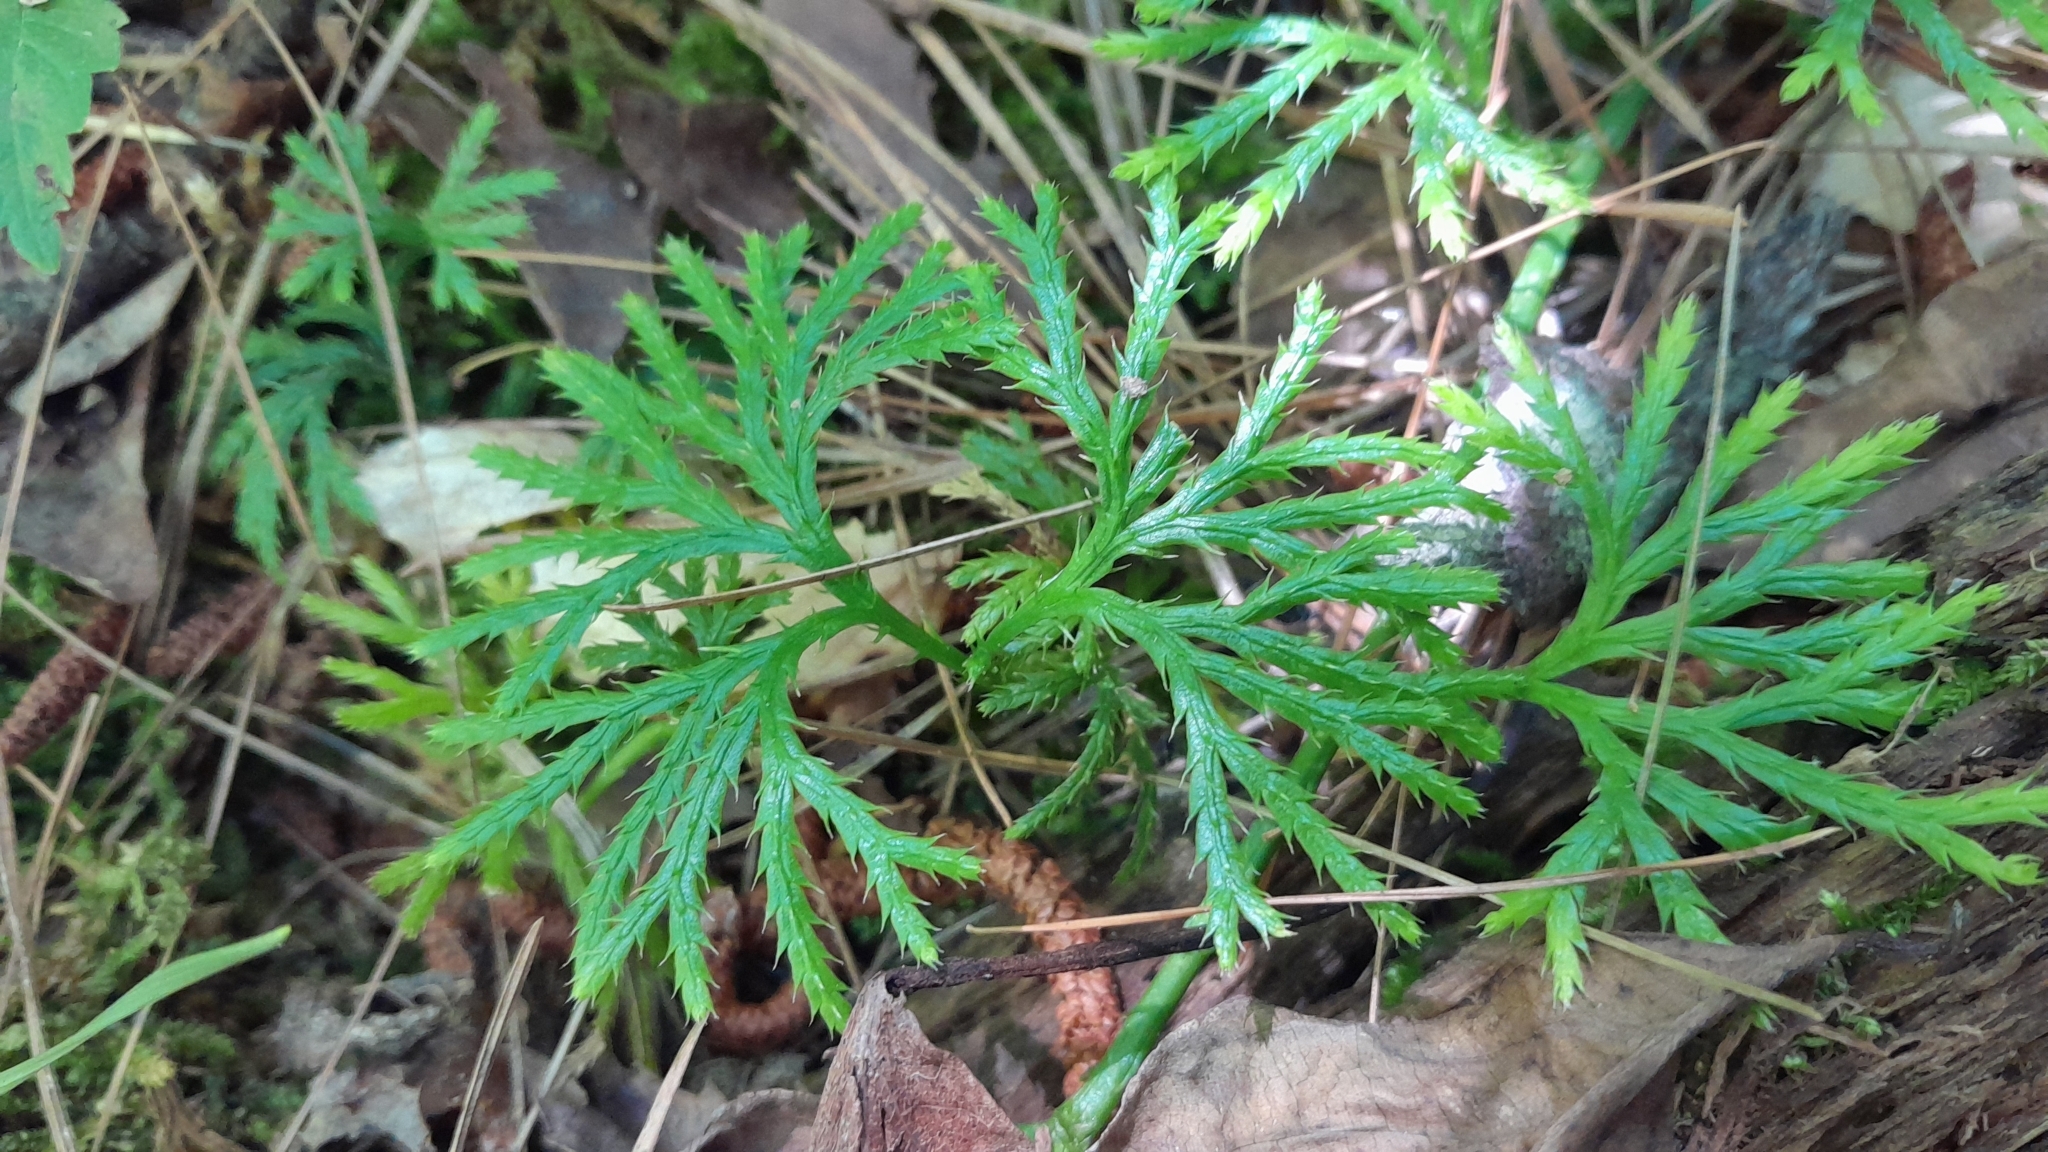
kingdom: Plantae
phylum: Tracheophyta
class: Lycopodiopsida
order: Lycopodiales
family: Lycopodiaceae
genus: Diphasiastrum
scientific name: Diphasiastrum digitatum
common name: Southern running-pine
